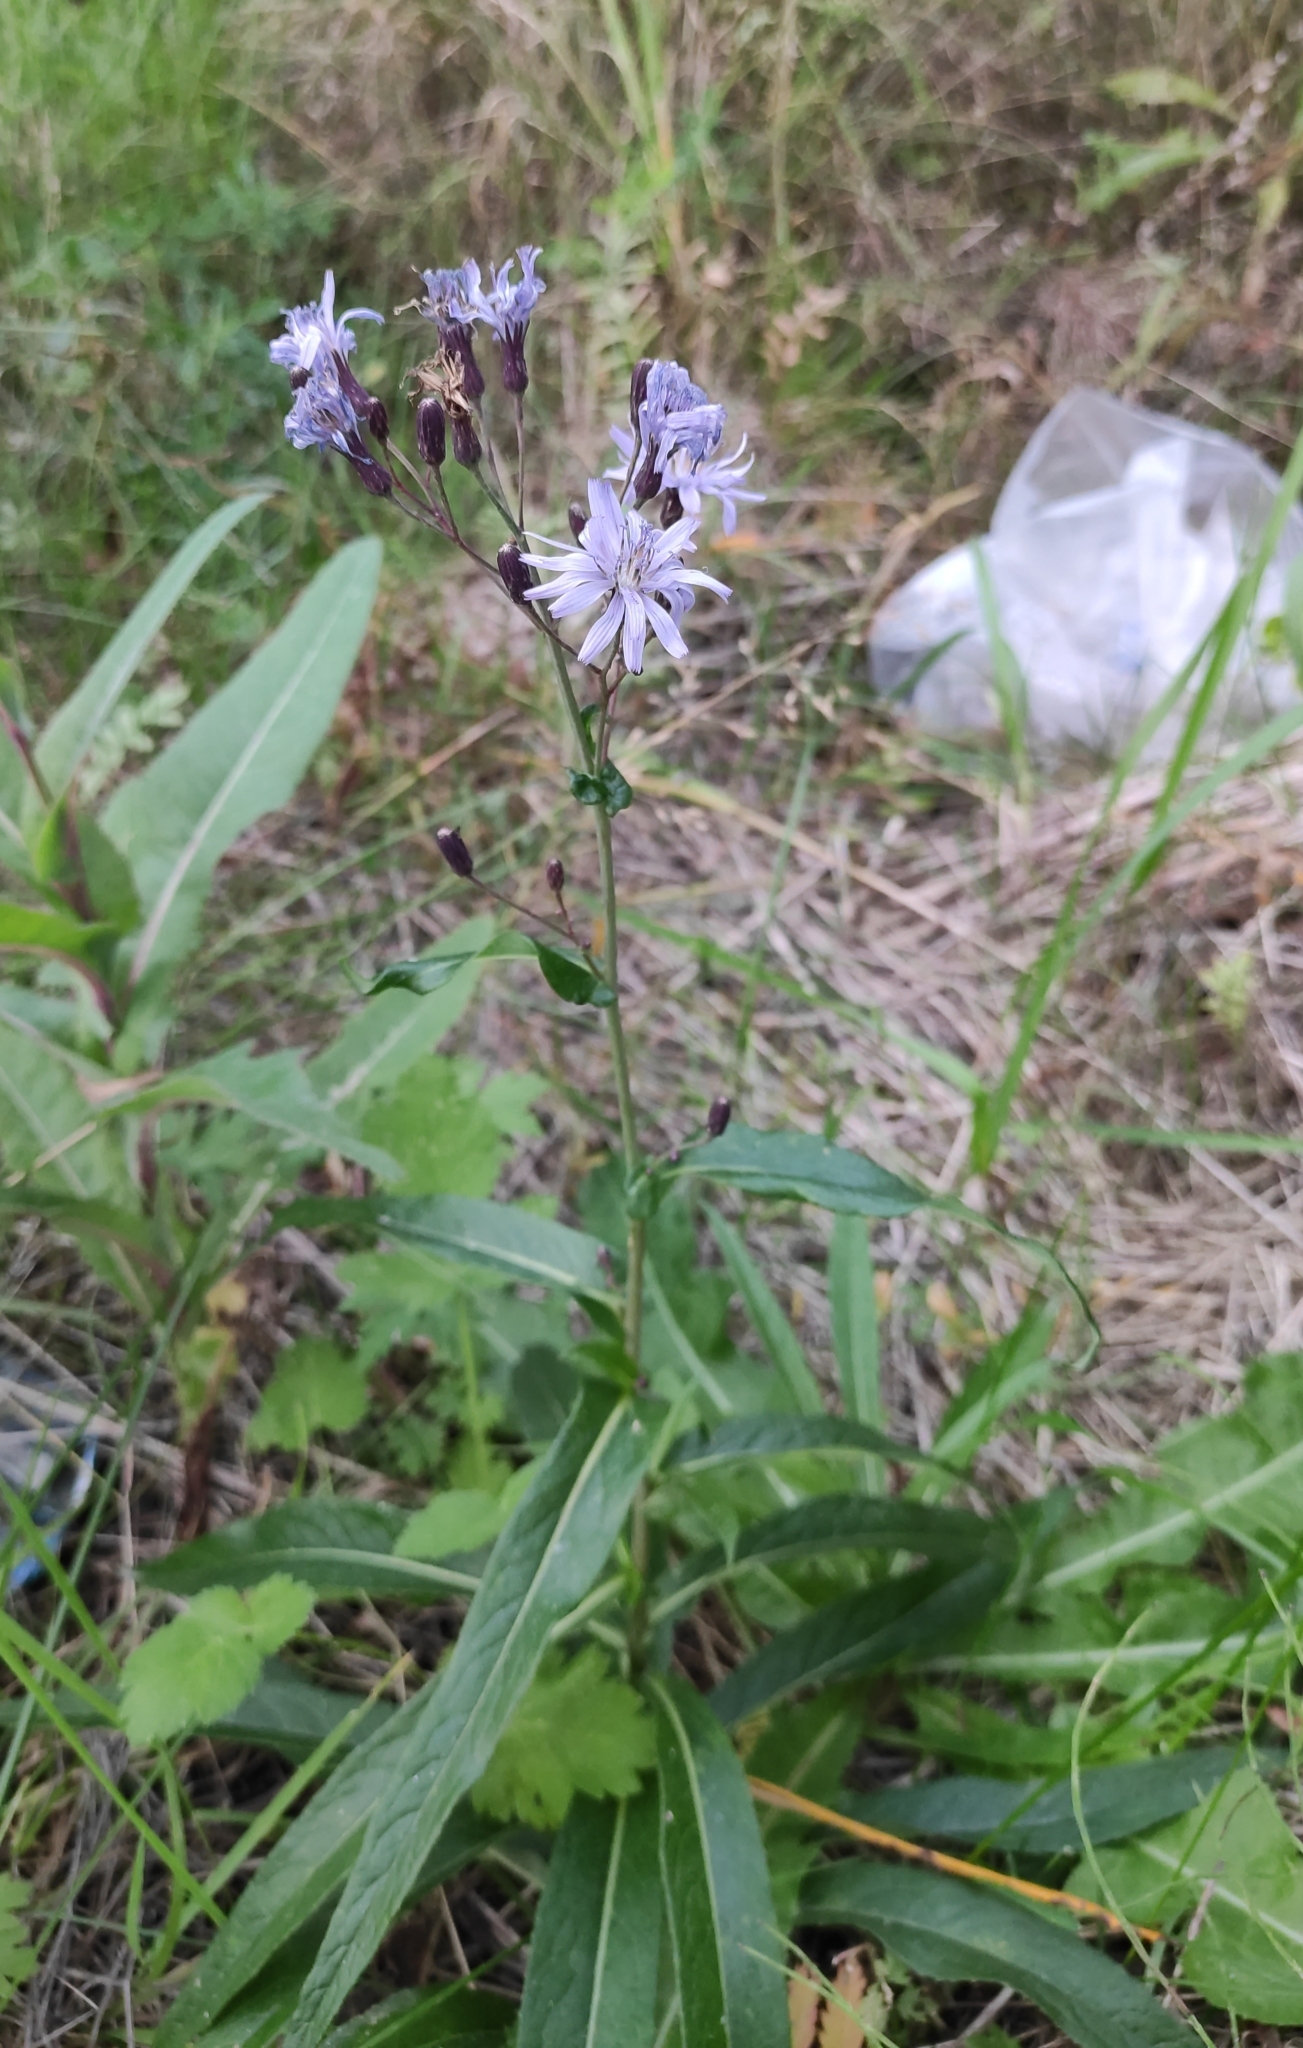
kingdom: Plantae
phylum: Tracheophyta
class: Magnoliopsida
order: Asterales
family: Asteraceae
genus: Lactuca
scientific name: Lactuca sibirica
